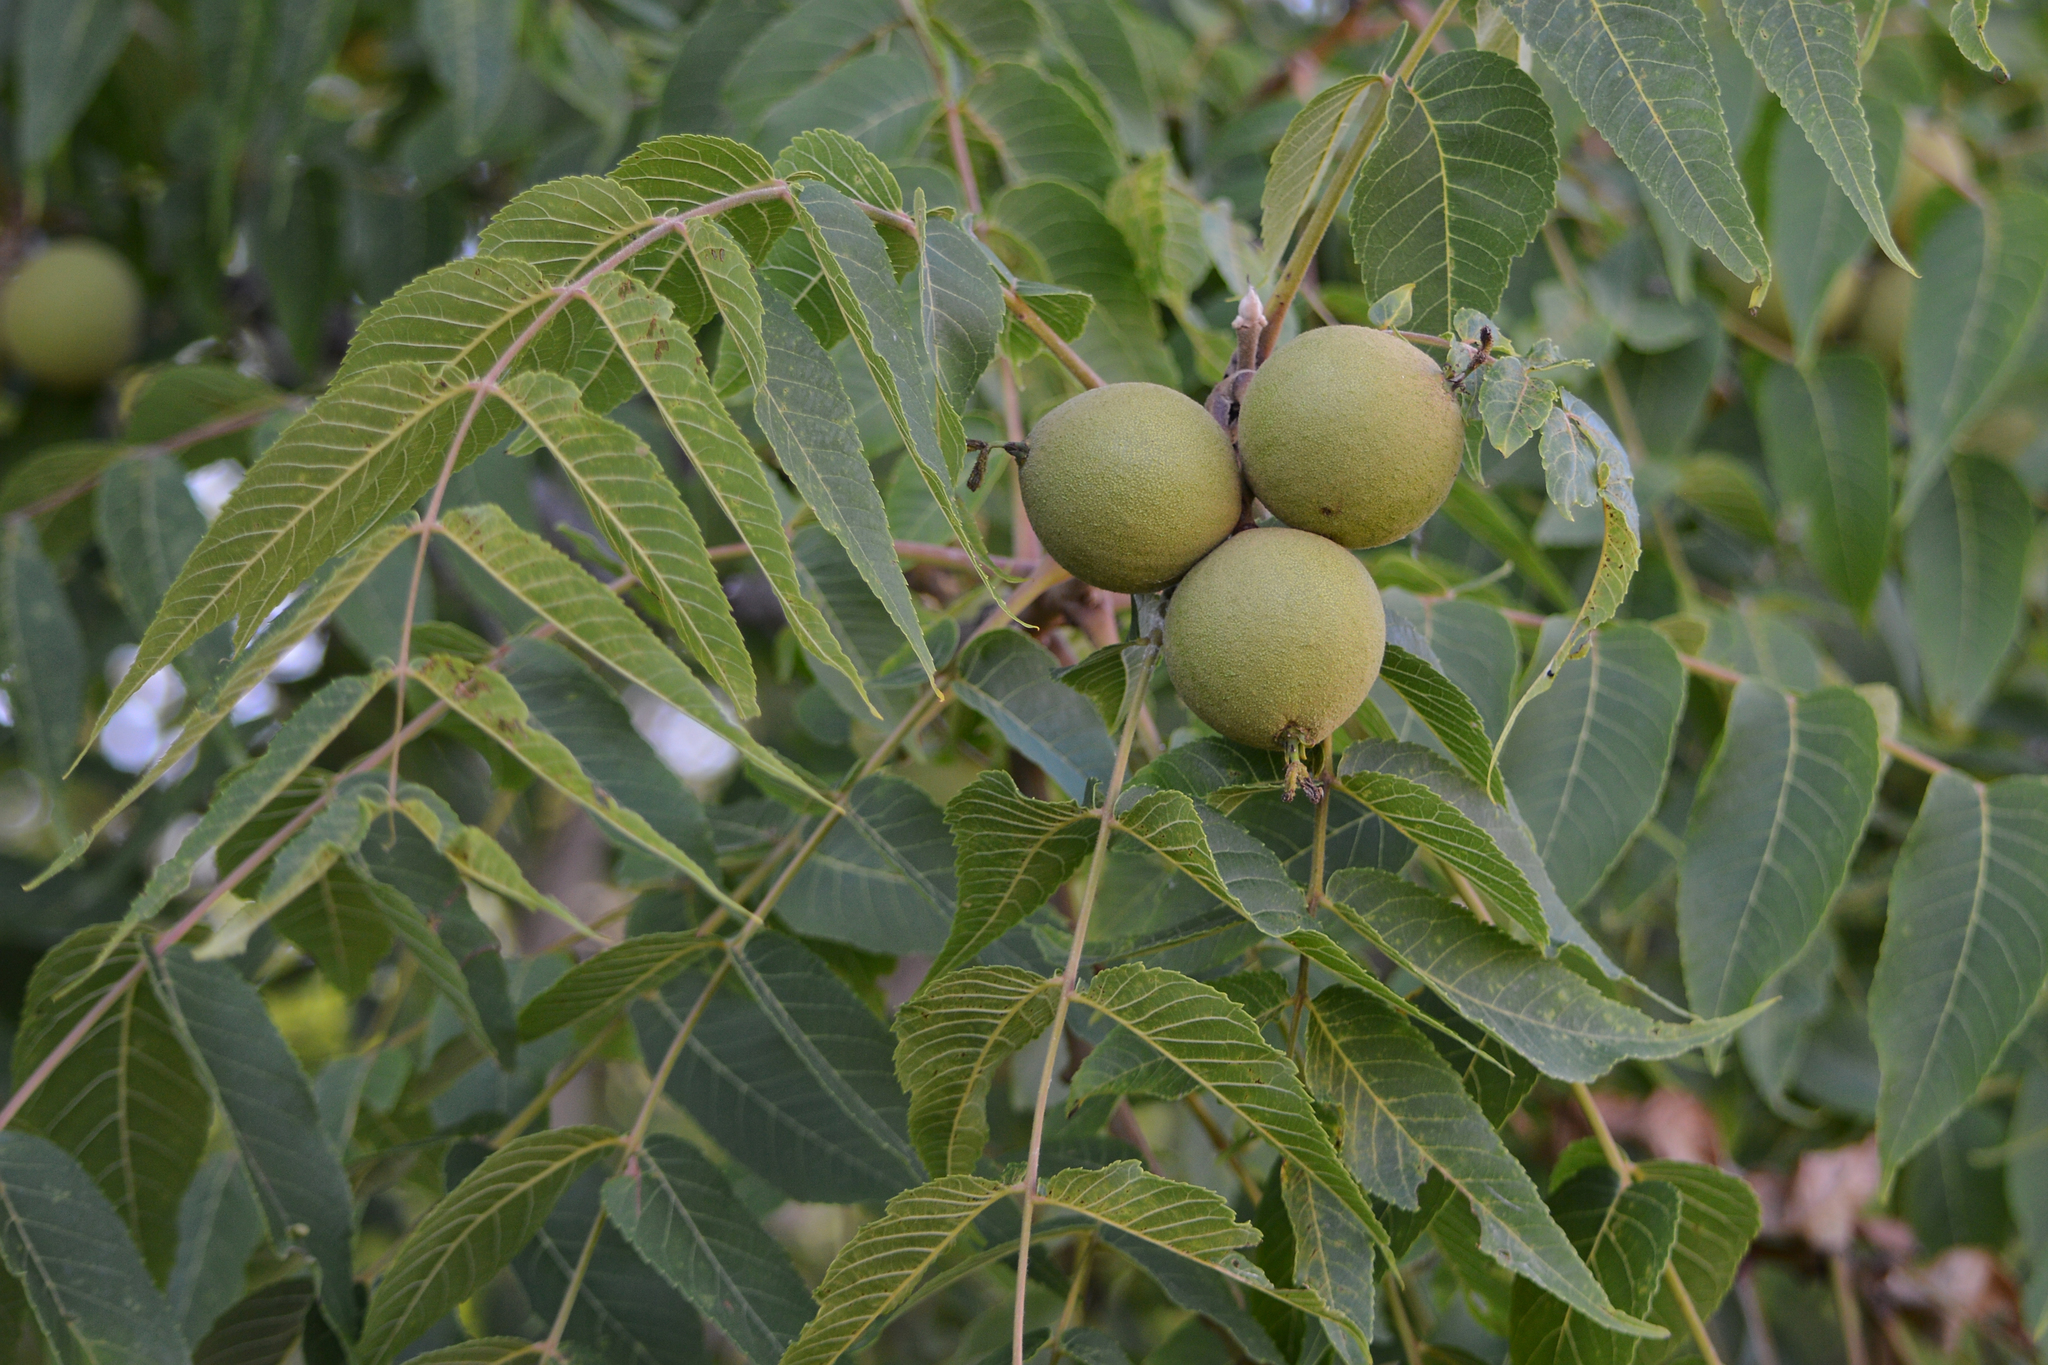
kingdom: Plantae
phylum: Tracheophyta
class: Magnoliopsida
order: Fagales
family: Juglandaceae
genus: Juglans
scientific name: Juglans nigra
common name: Black walnut
